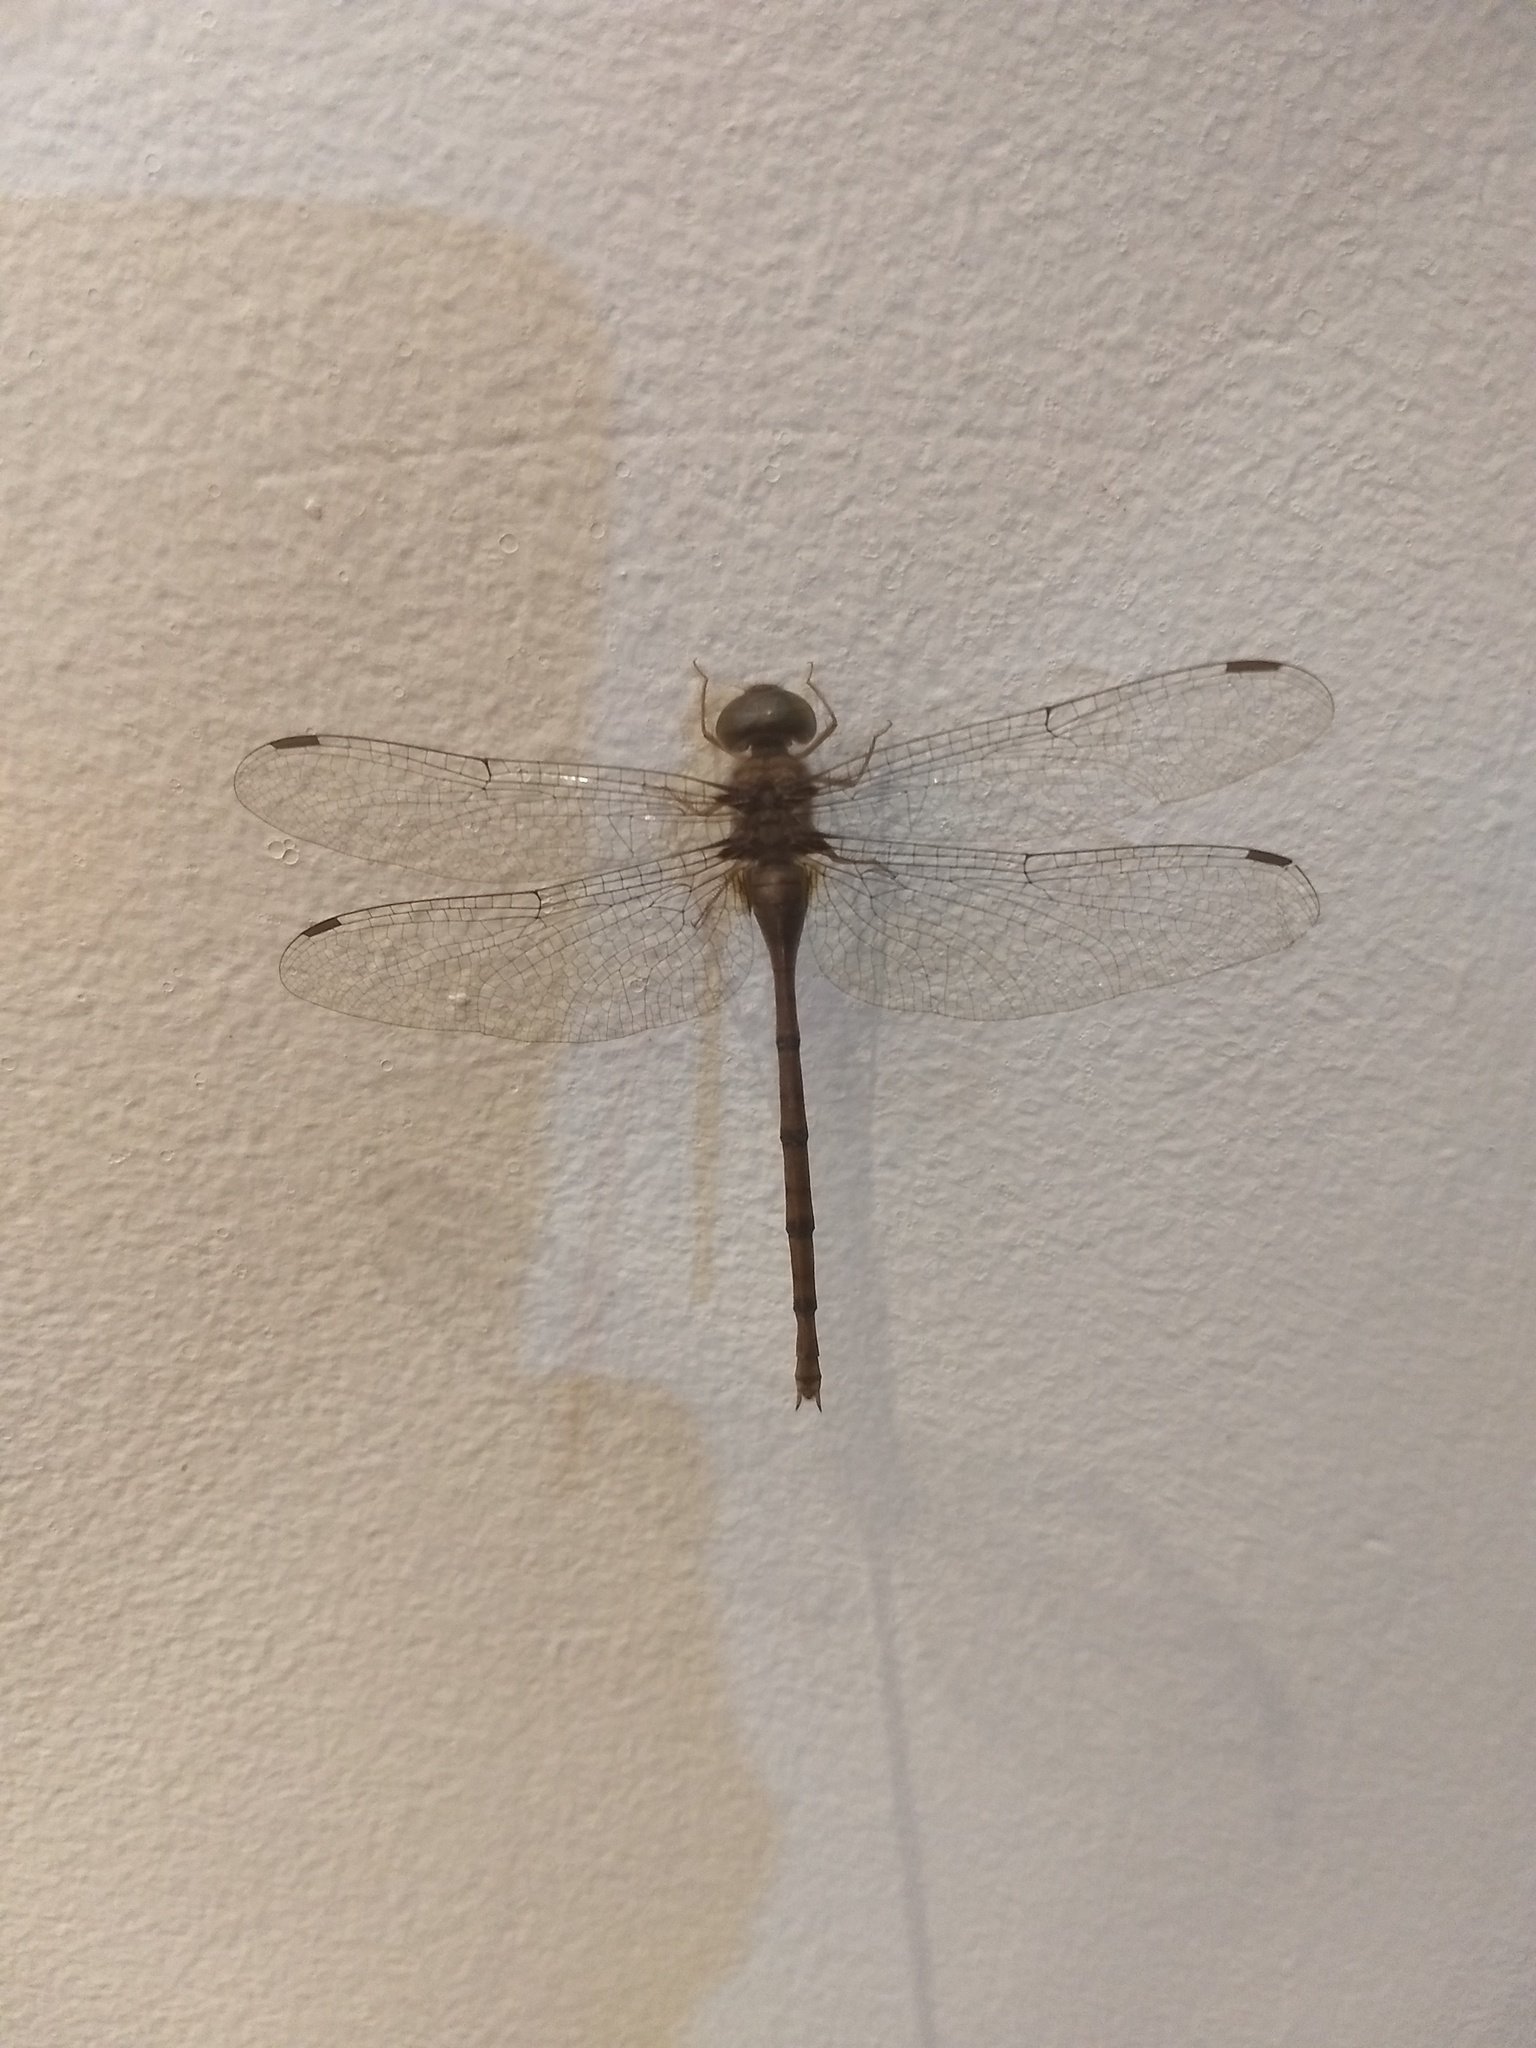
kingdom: Animalia
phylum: Arthropoda
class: Insecta
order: Odonata
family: Libellulidae
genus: Zyxomma
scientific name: Zyxomma petiolatum
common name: Dingy dusk-darter
